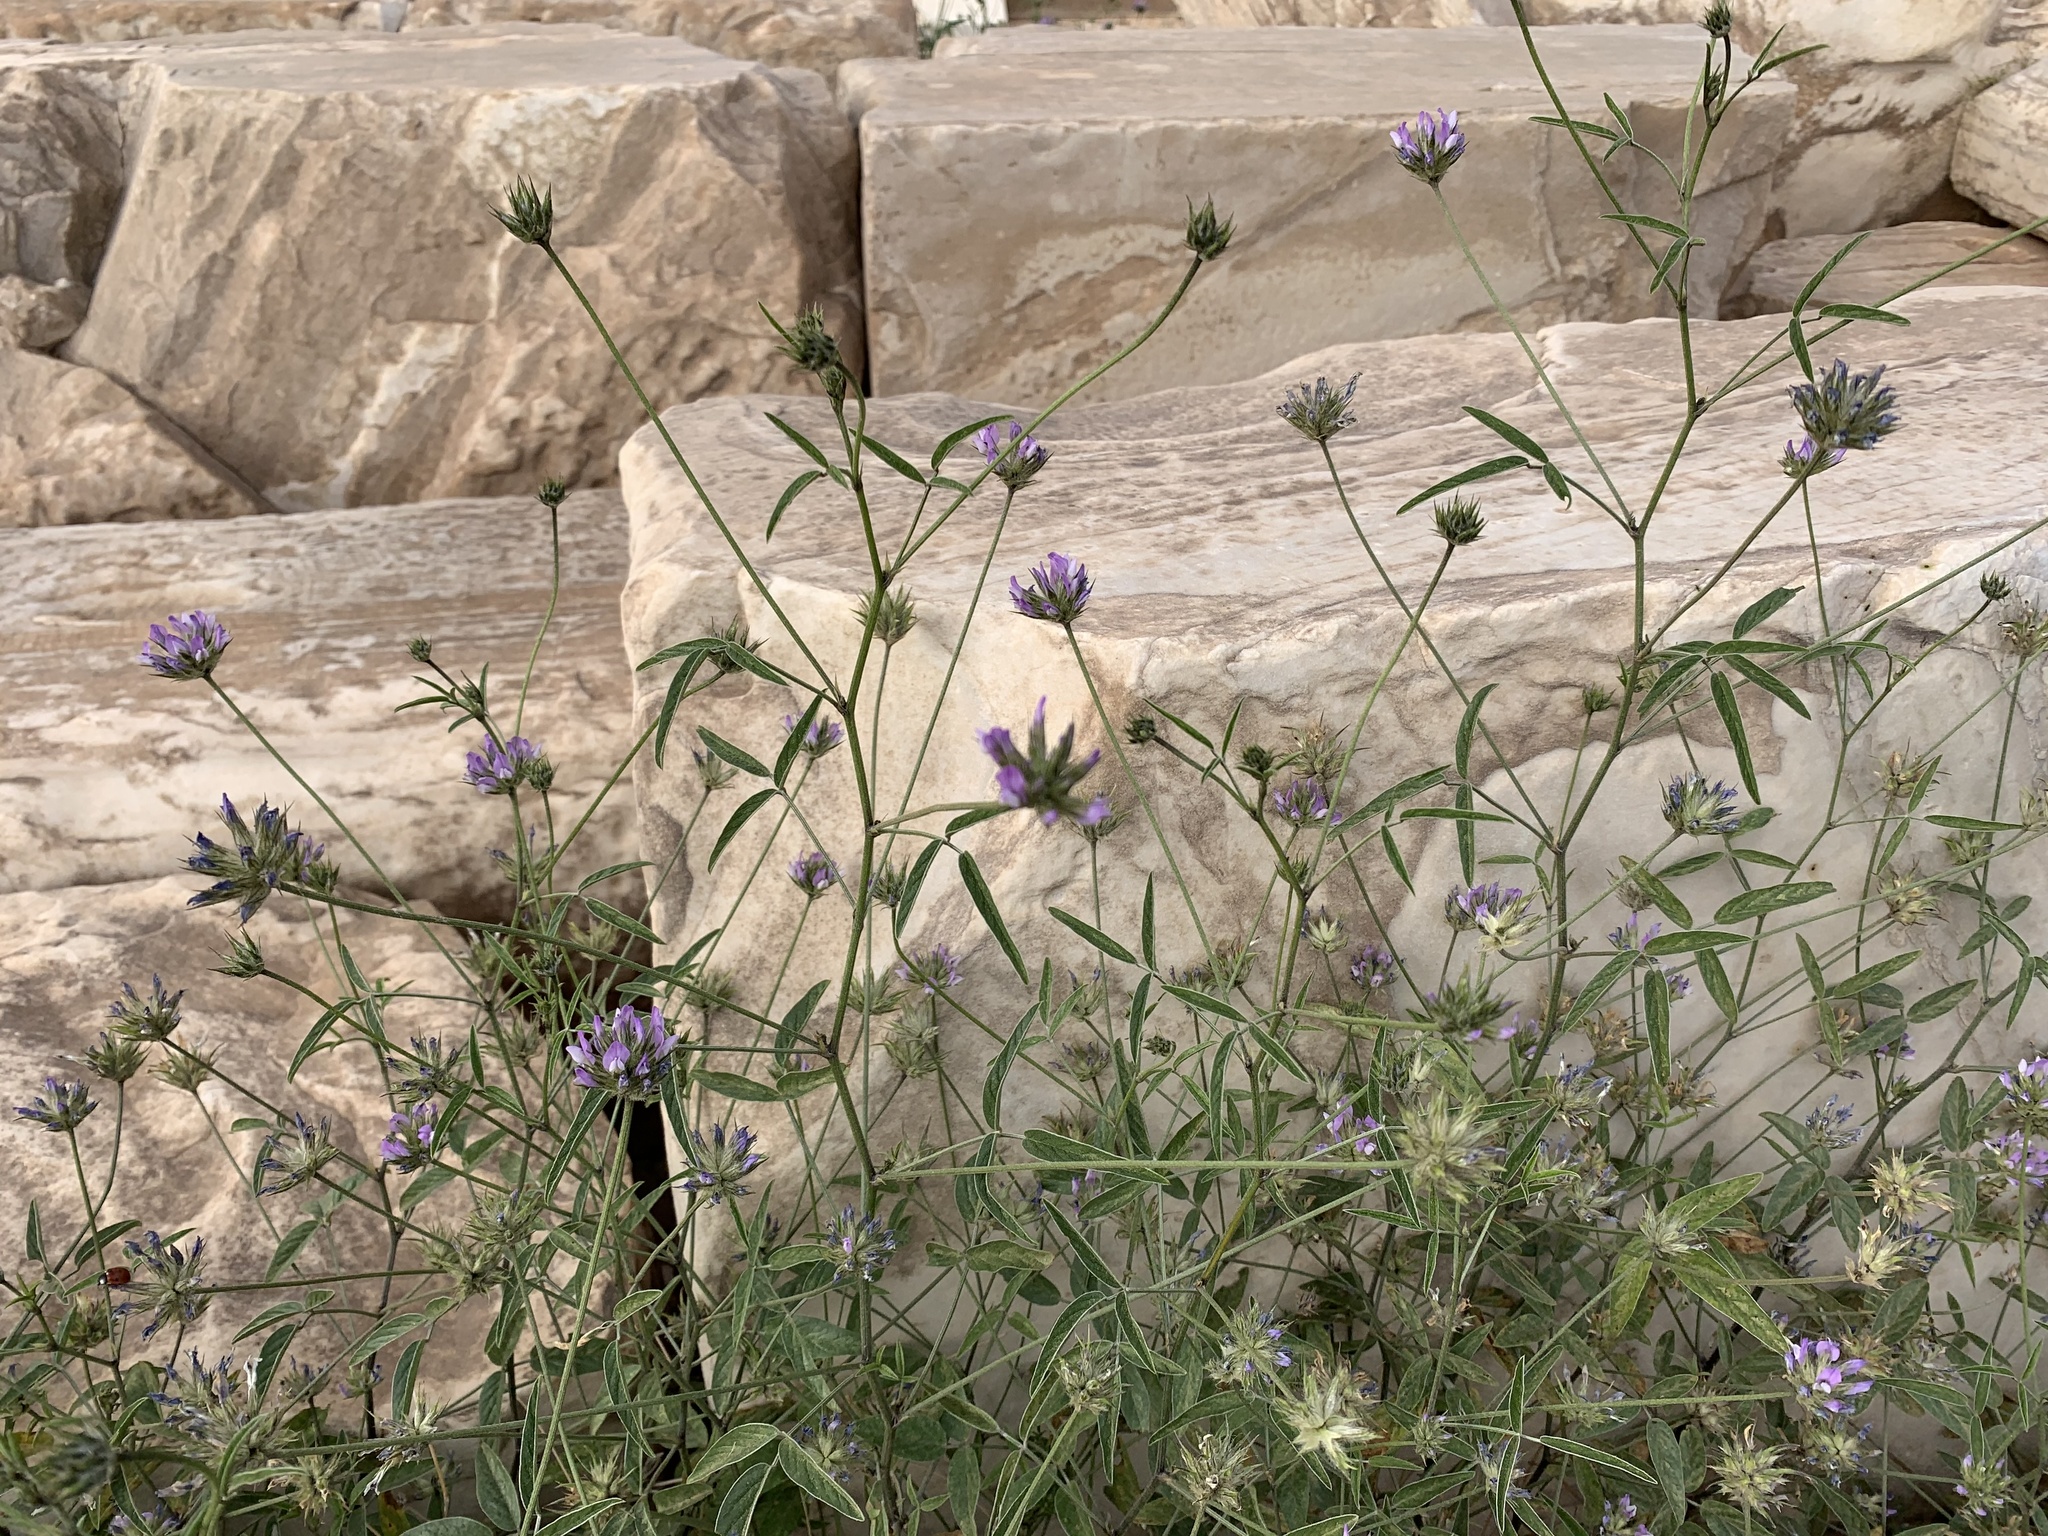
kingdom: Plantae
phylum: Tracheophyta
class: Magnoliopsida
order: Fabales
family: Fabaceae
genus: Bituminaria
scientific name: Bituminaria bituminosa
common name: Arabian pea
